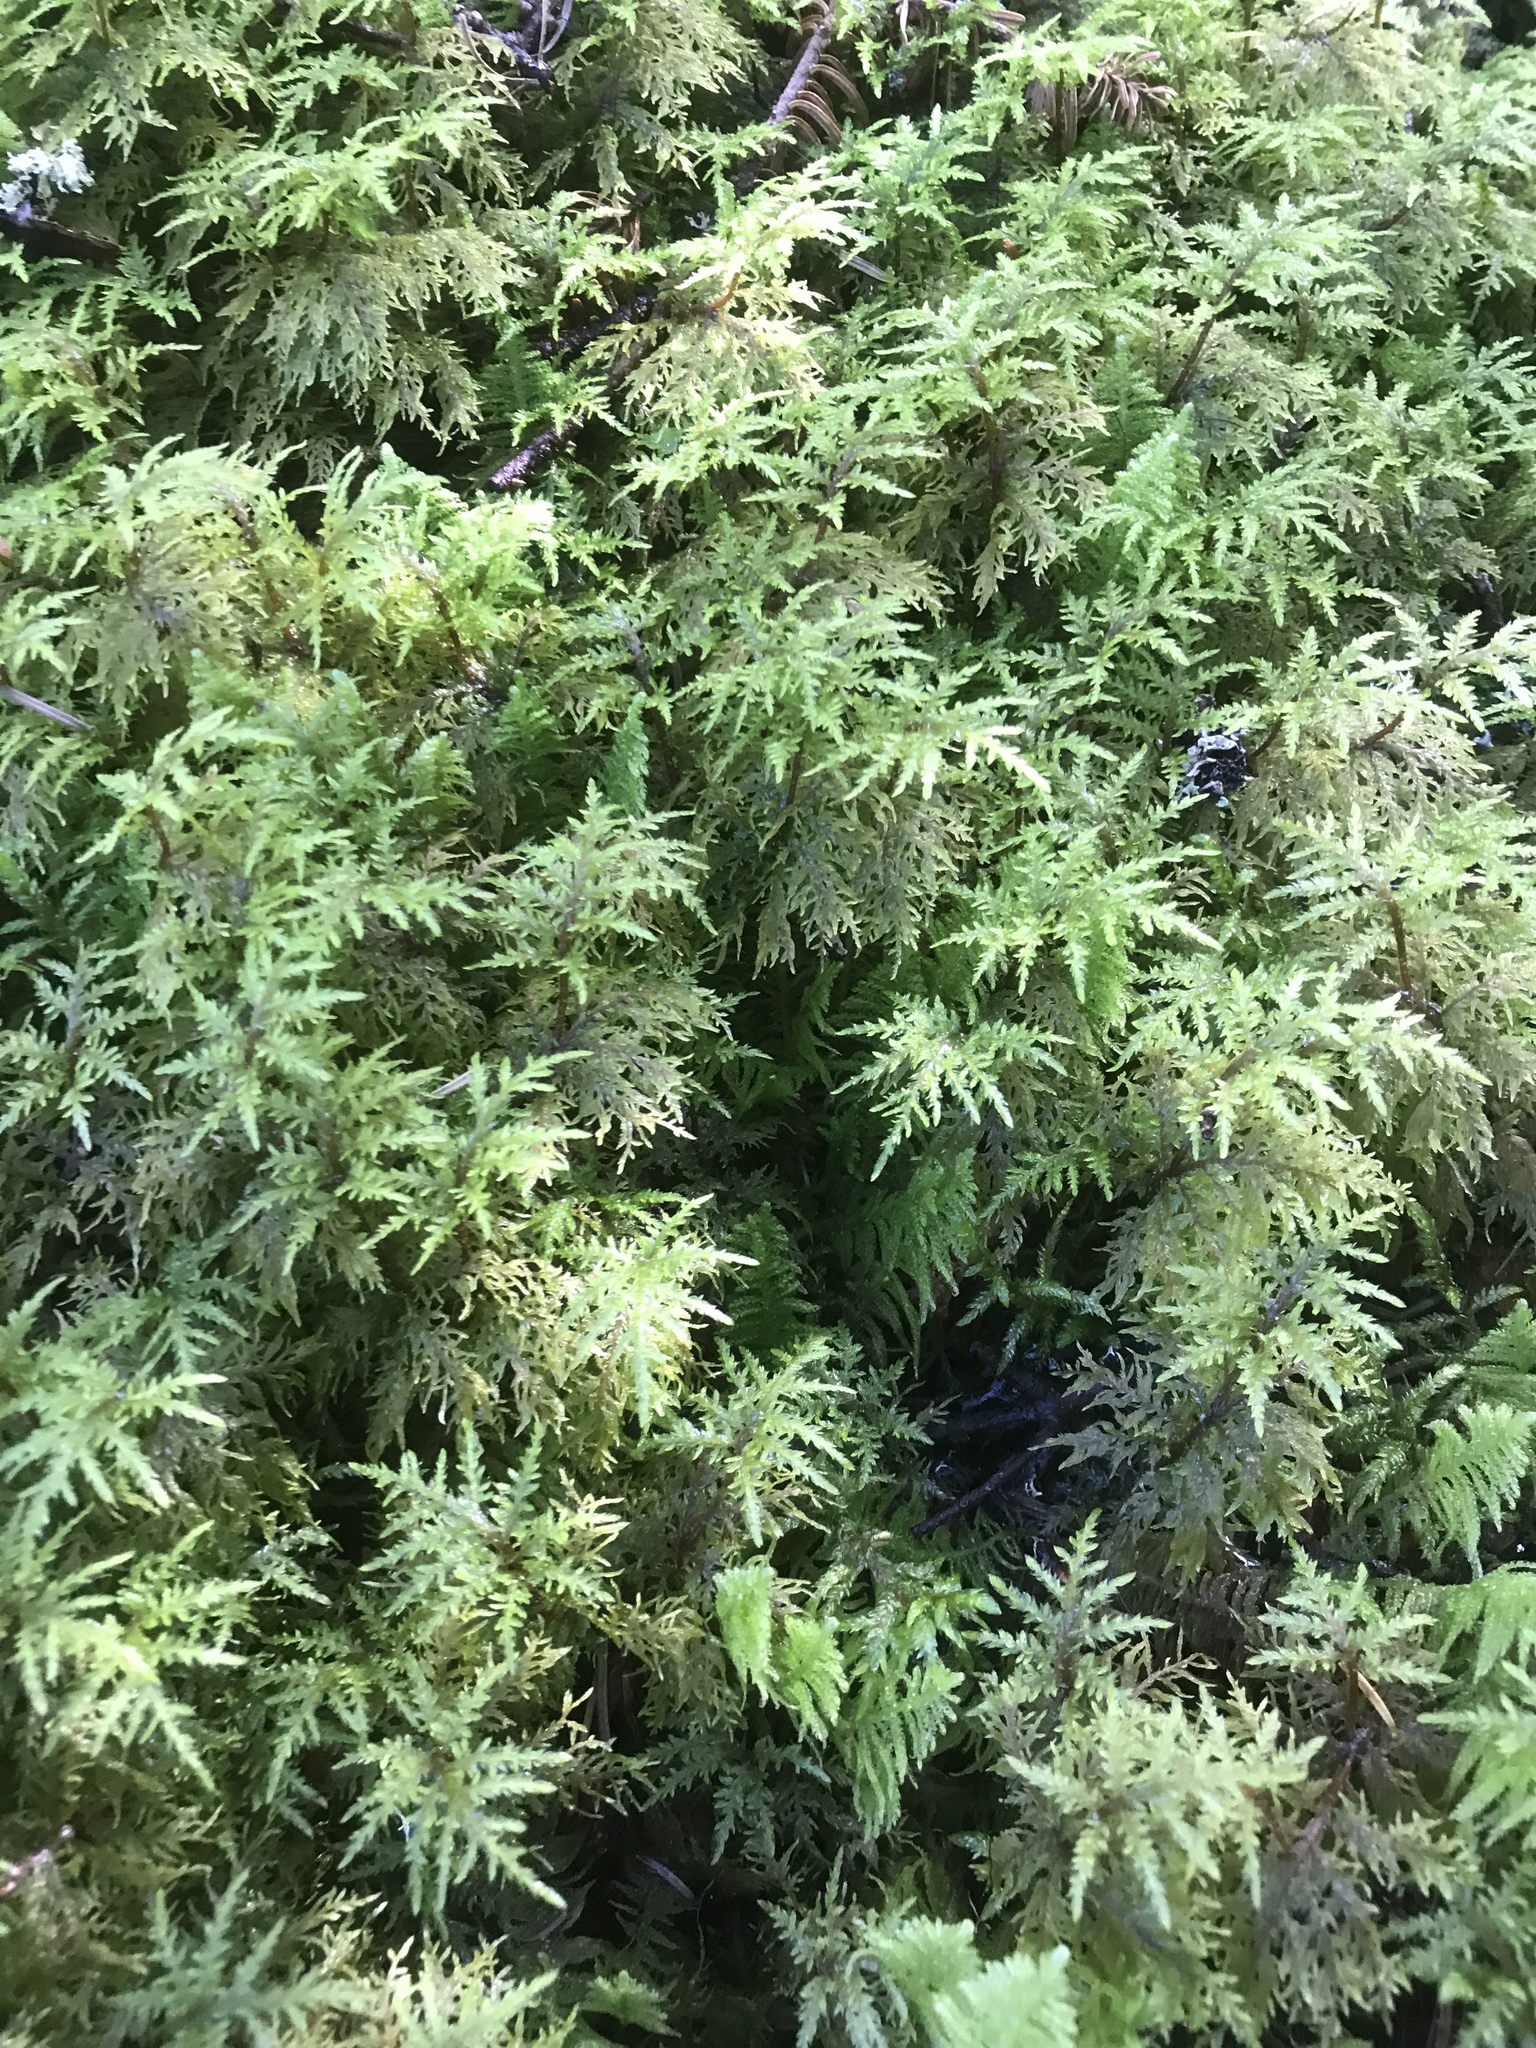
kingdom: Plantae
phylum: Bryophyta
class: Bryopsida
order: Hypnales
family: Hylocomiaceae
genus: Hylocomium
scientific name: Hylocomium splendens
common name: Stairstep moss
